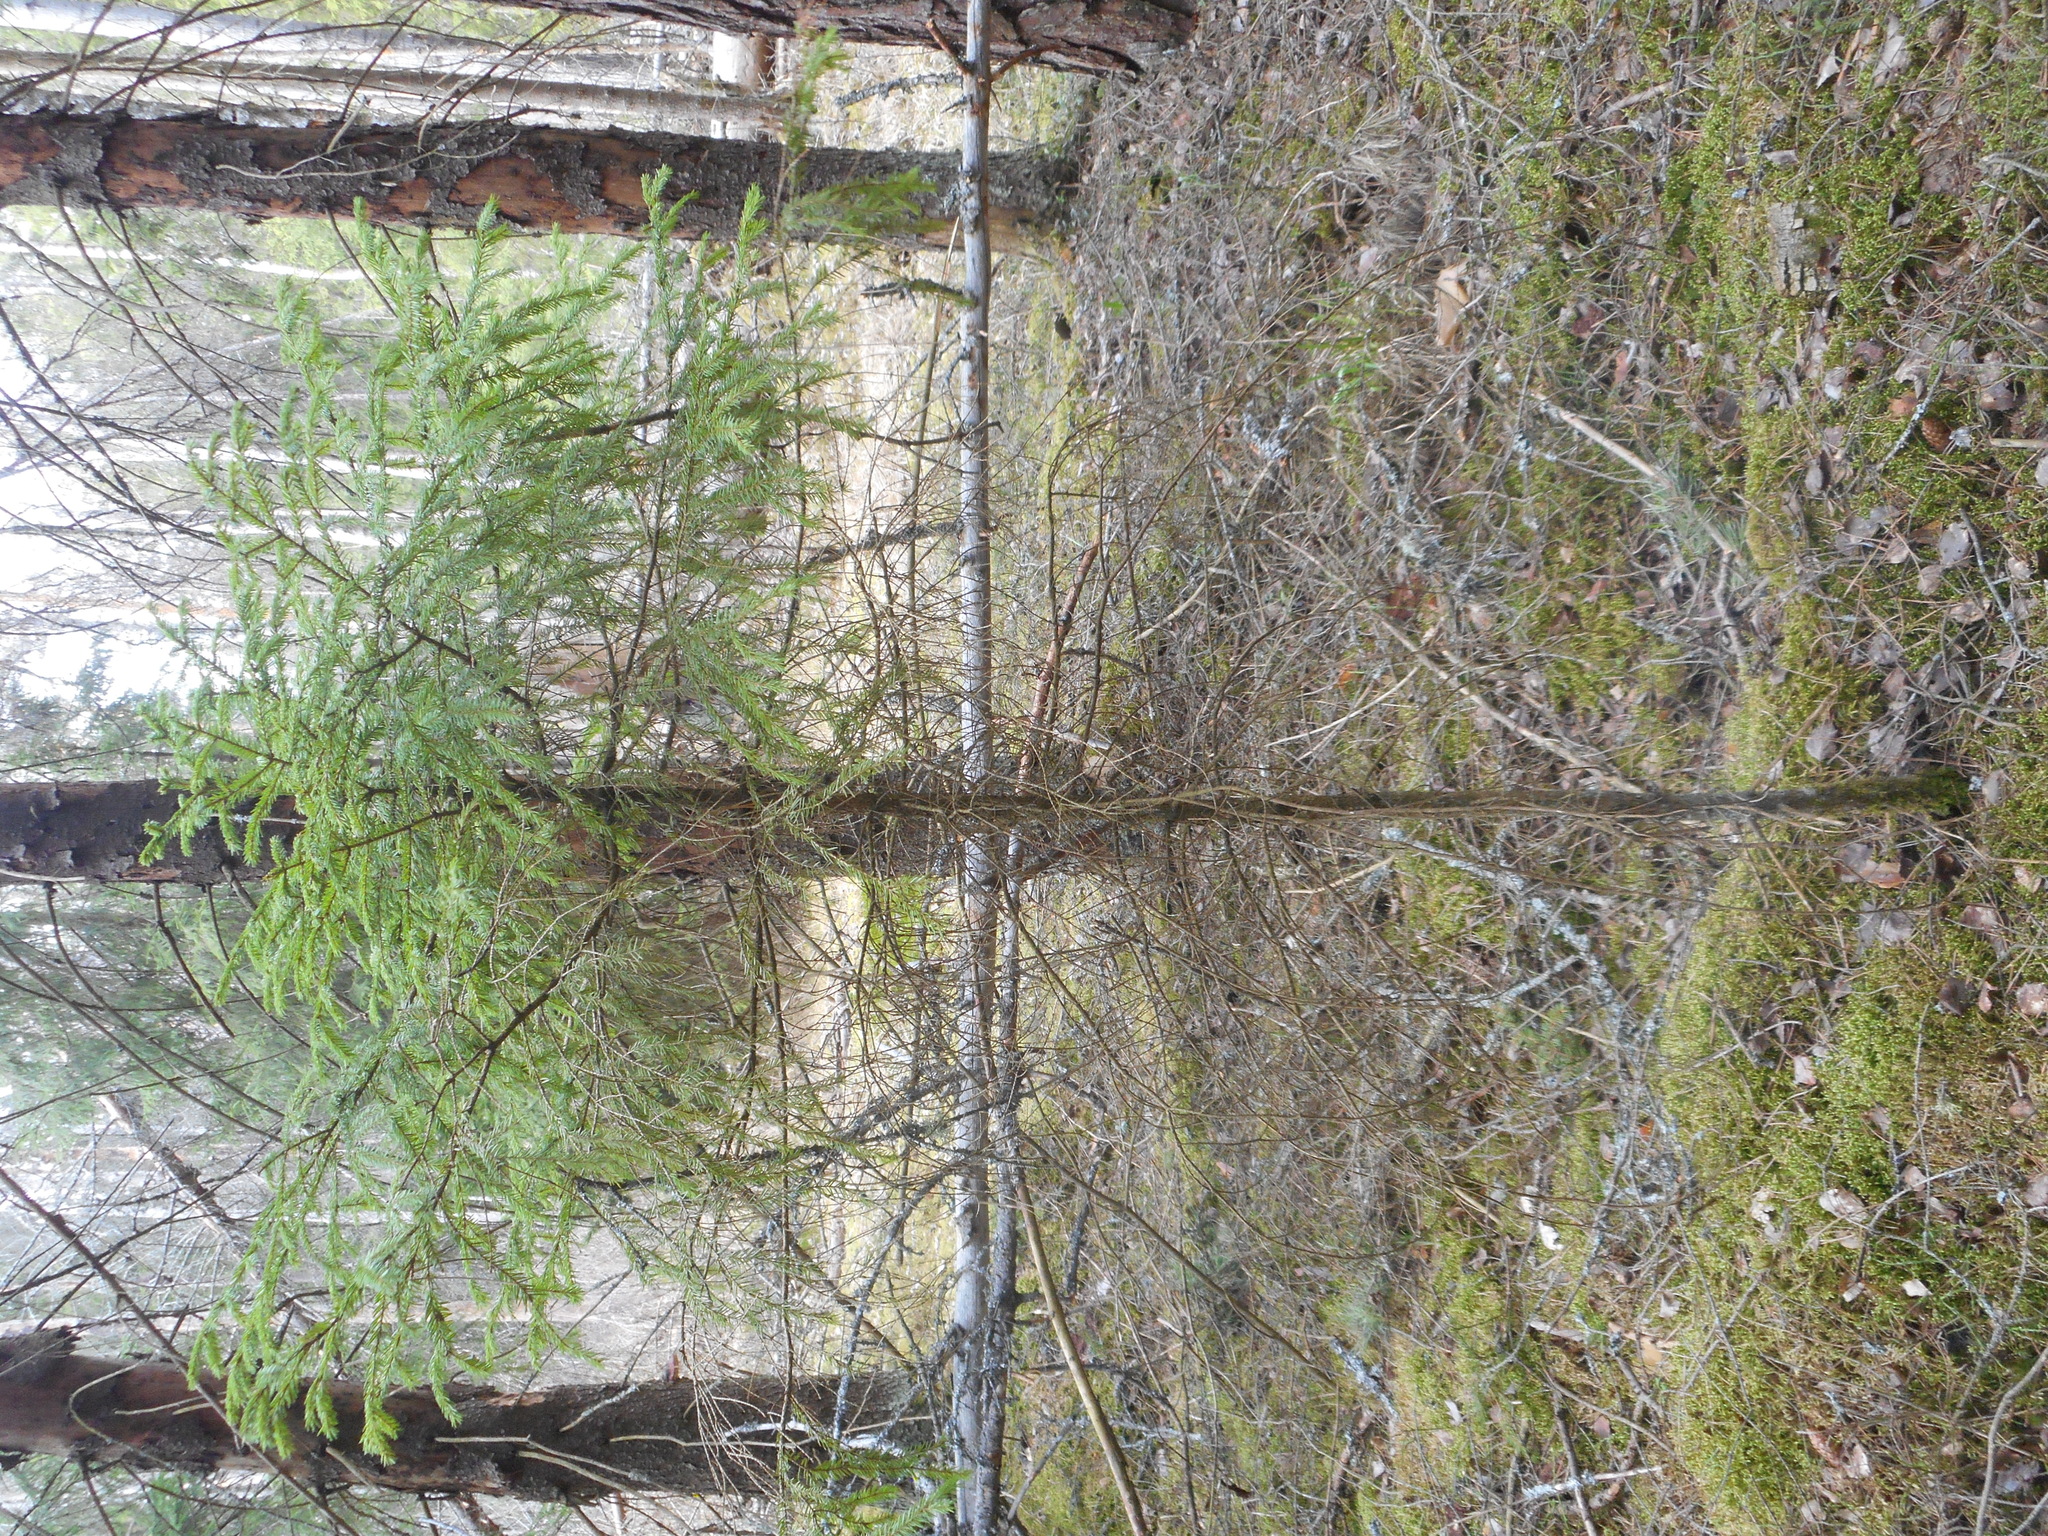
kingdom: Plantae
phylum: Tracheophyta
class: Pinopsida
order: Pinales
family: Pinaceae
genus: Picea
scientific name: Picea abies
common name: Norway spruce
